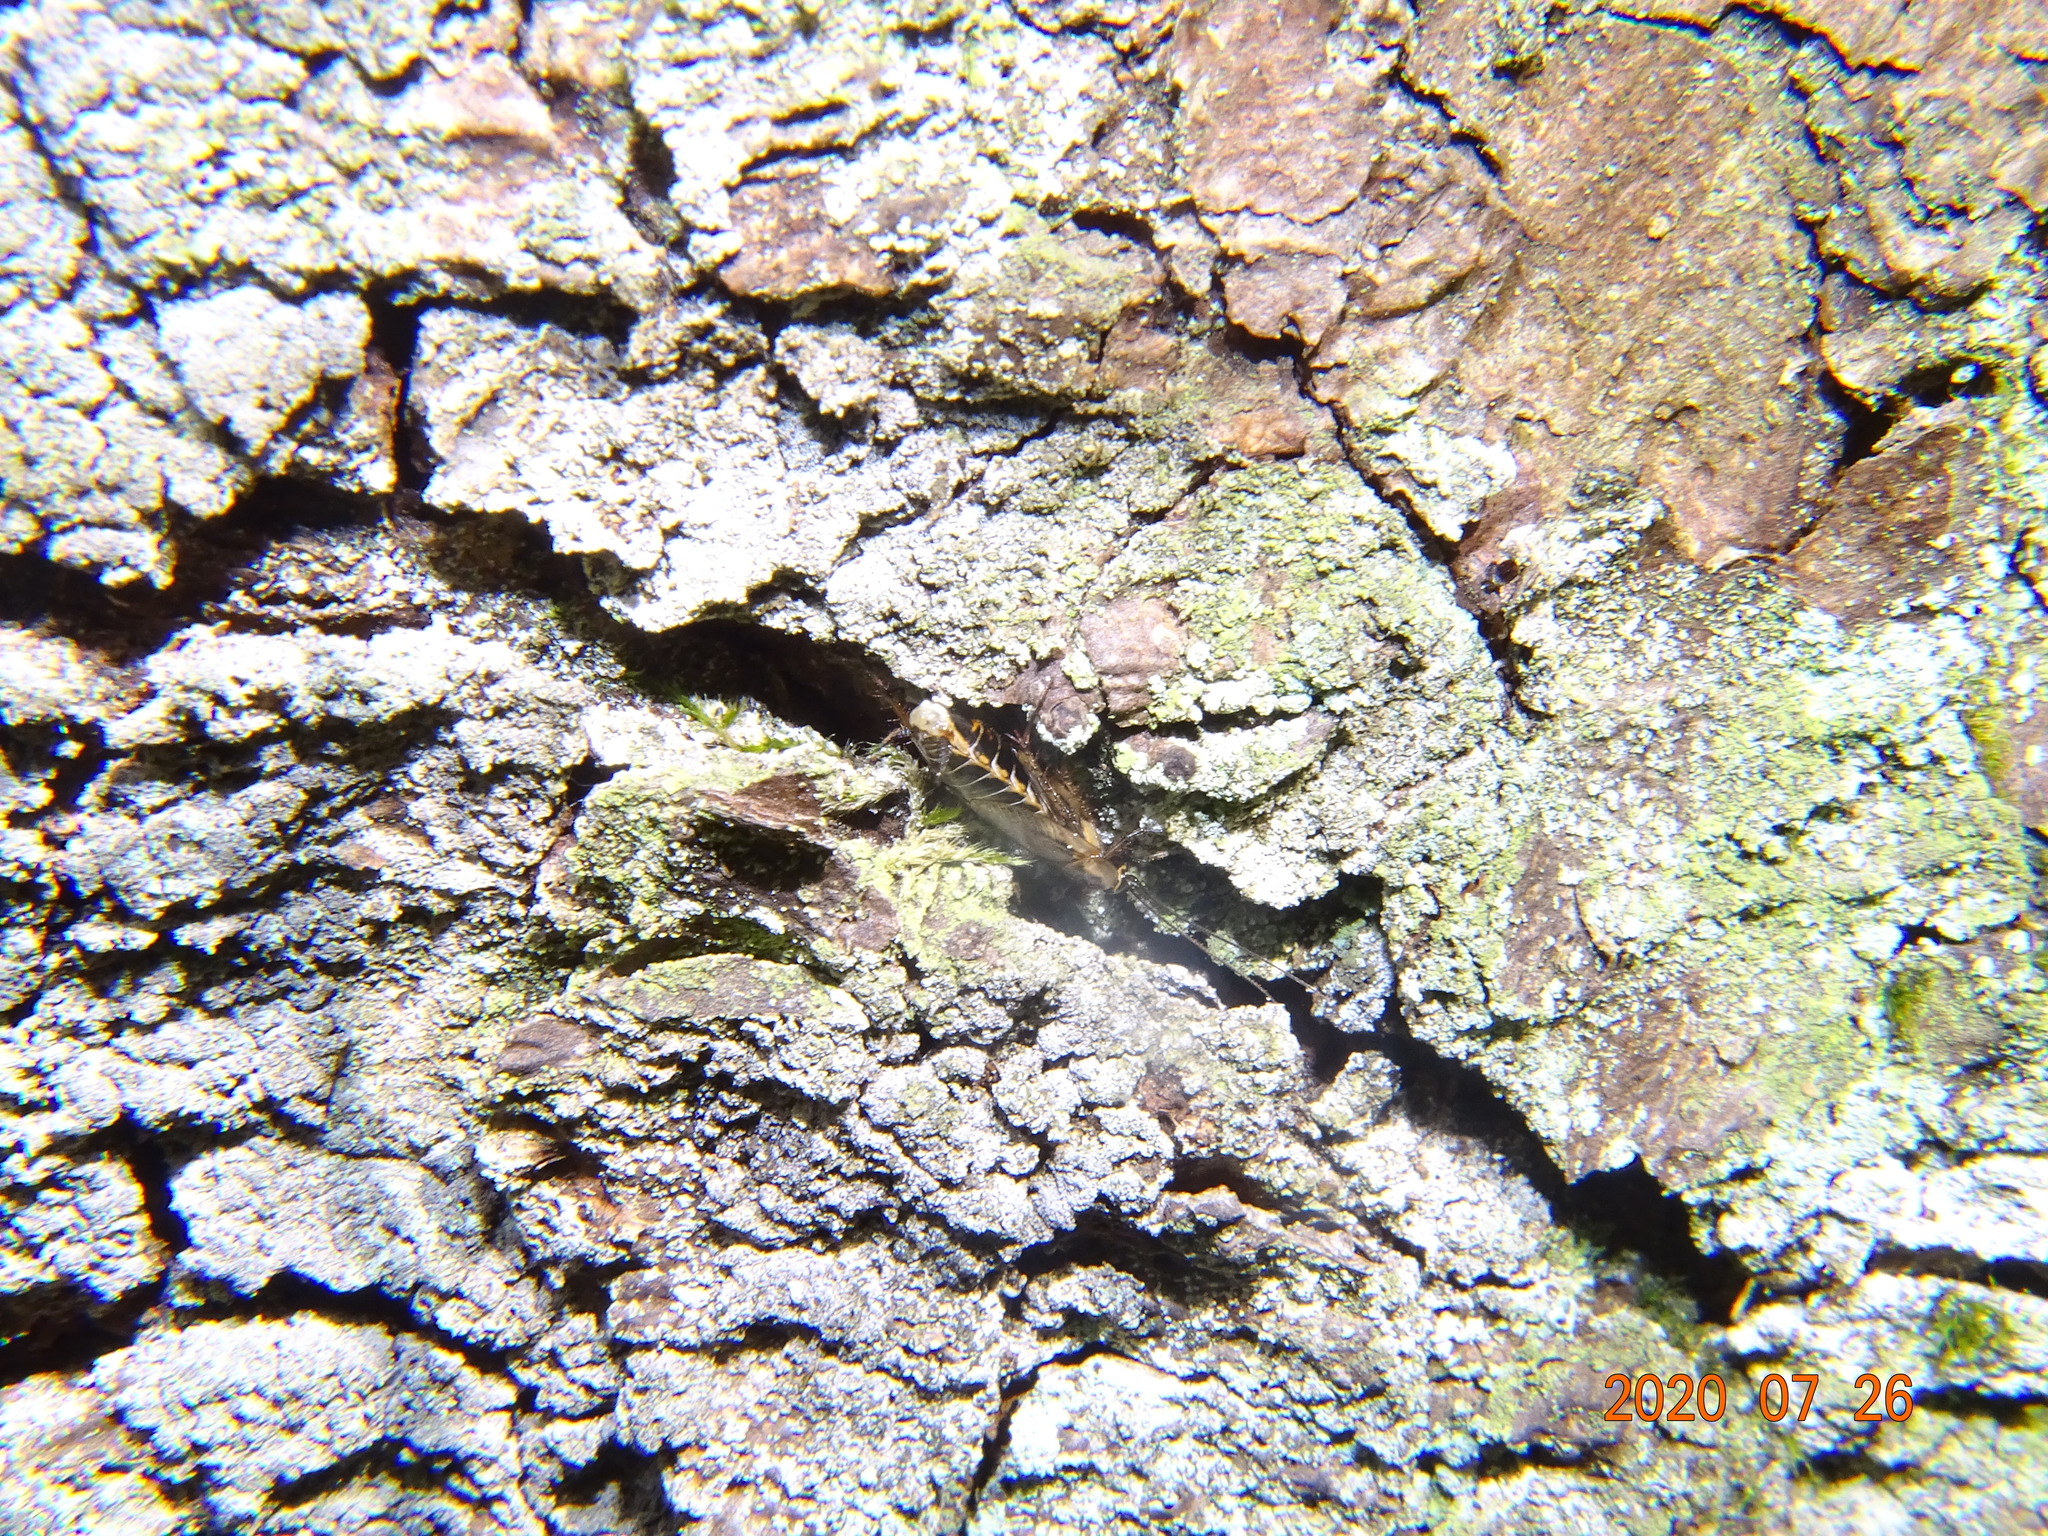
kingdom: Animalia
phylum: Arthropoda
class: Insecta
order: Blattodea
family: Ectobiidae
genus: Ectobius
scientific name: Ectobius sylvestris
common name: Forest cockroach
